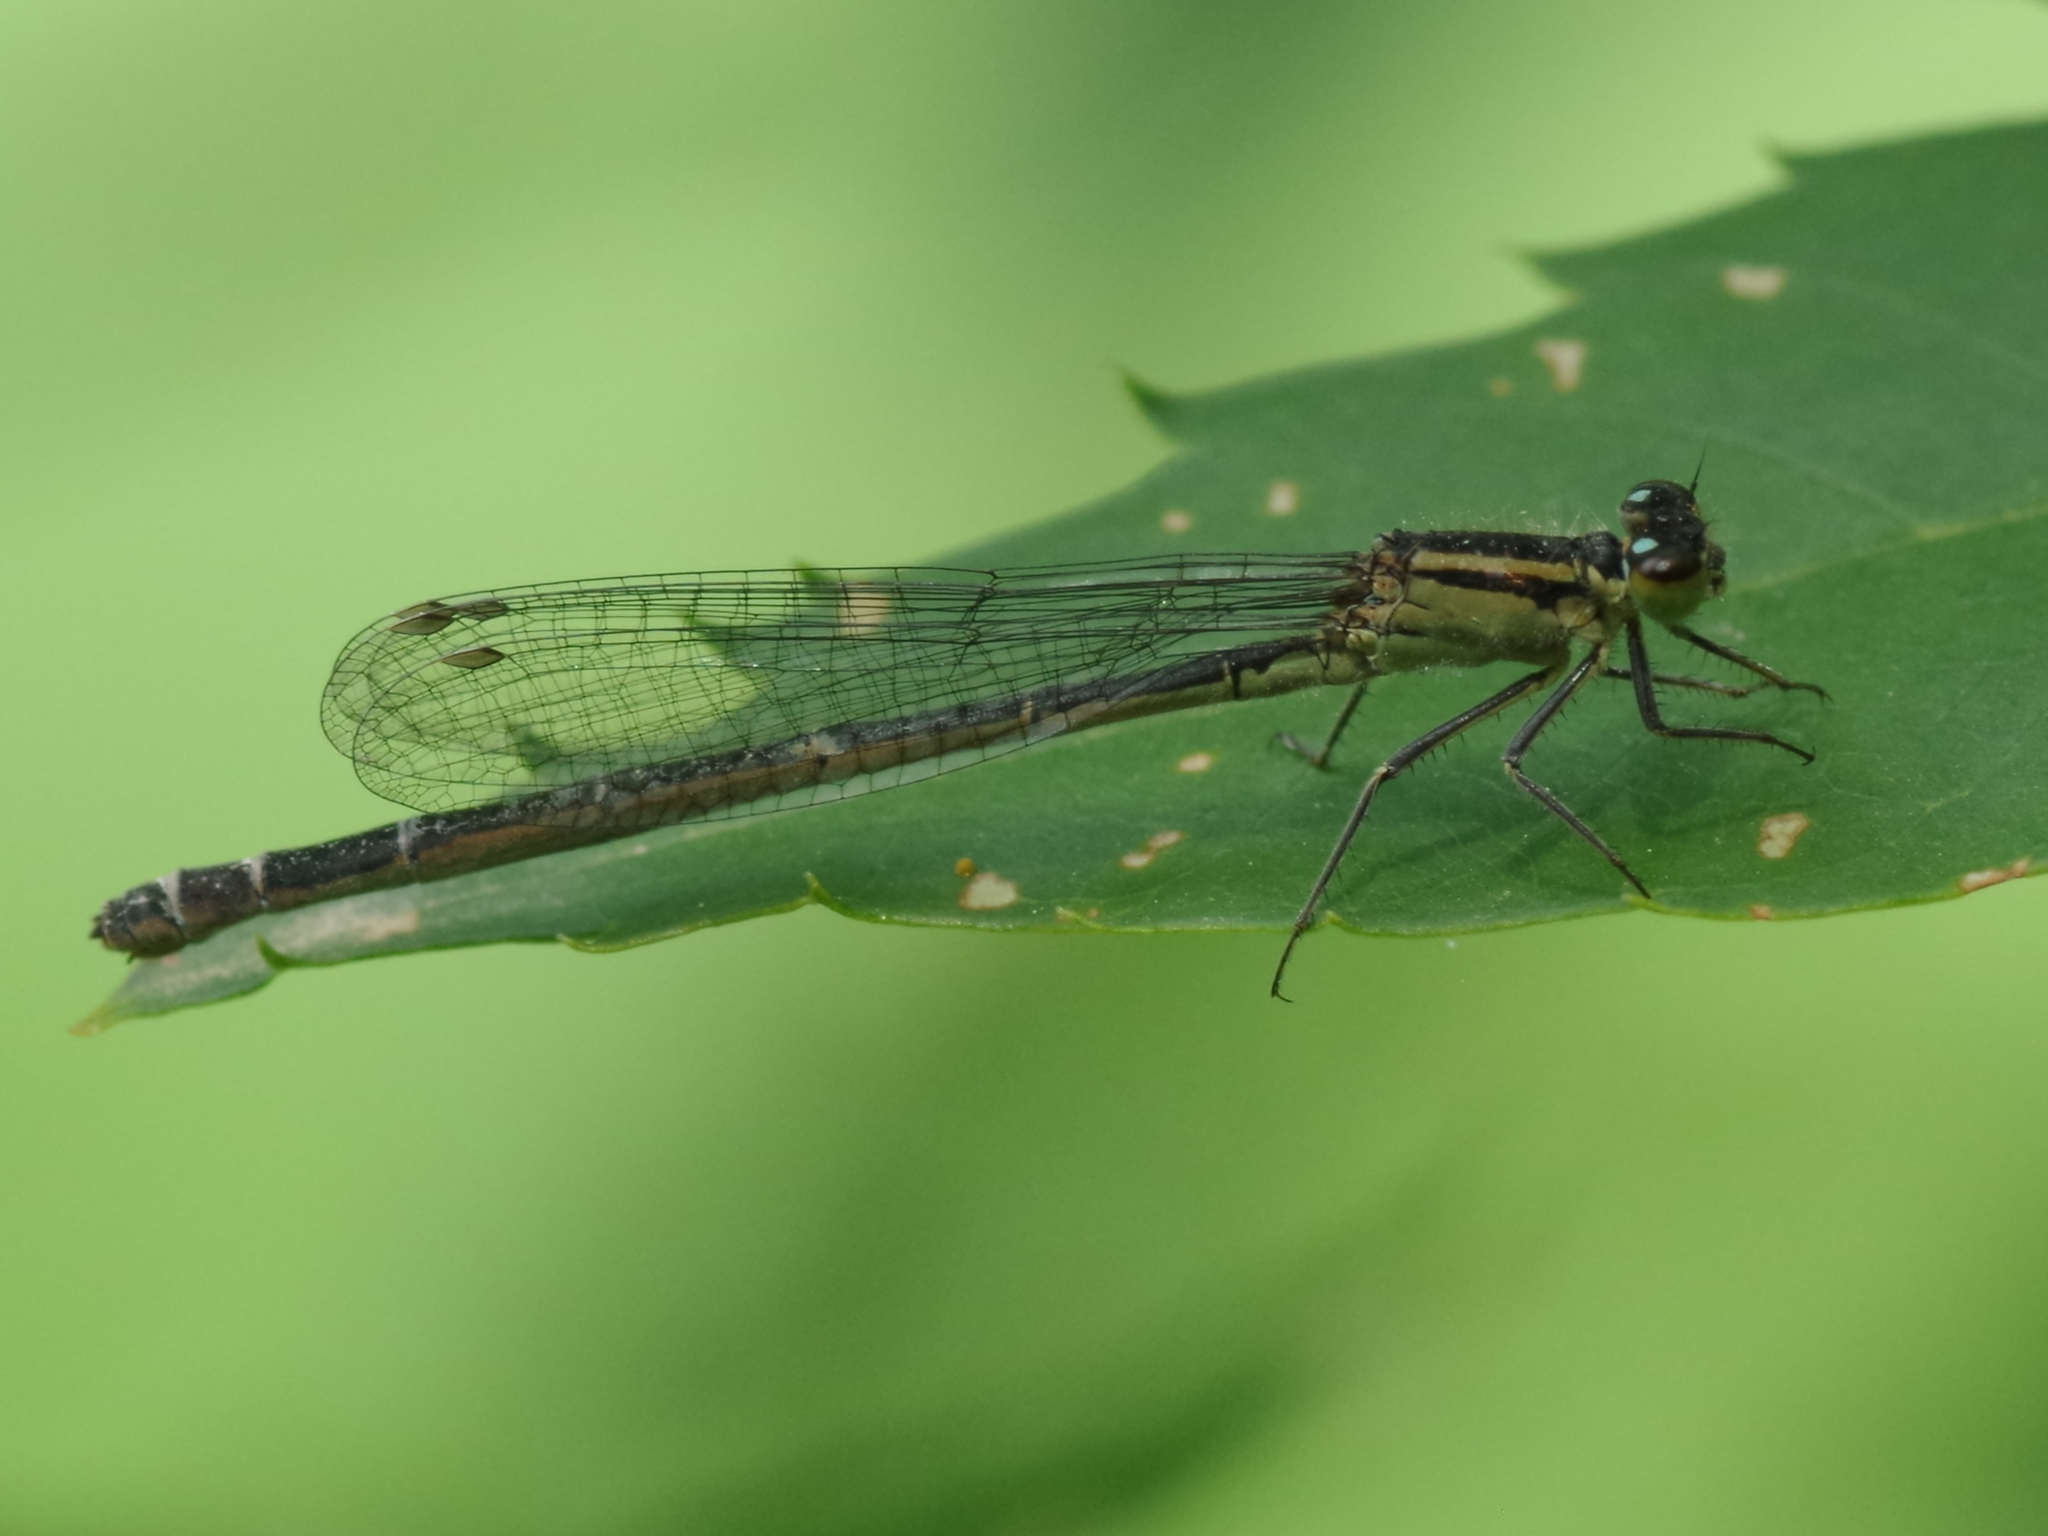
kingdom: Animalia
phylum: Arthropoda
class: Insecta
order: Odonata
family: Coenagrionidae
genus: Ischnura
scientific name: Ischnura elegans
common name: Blue-tailed damselfly
